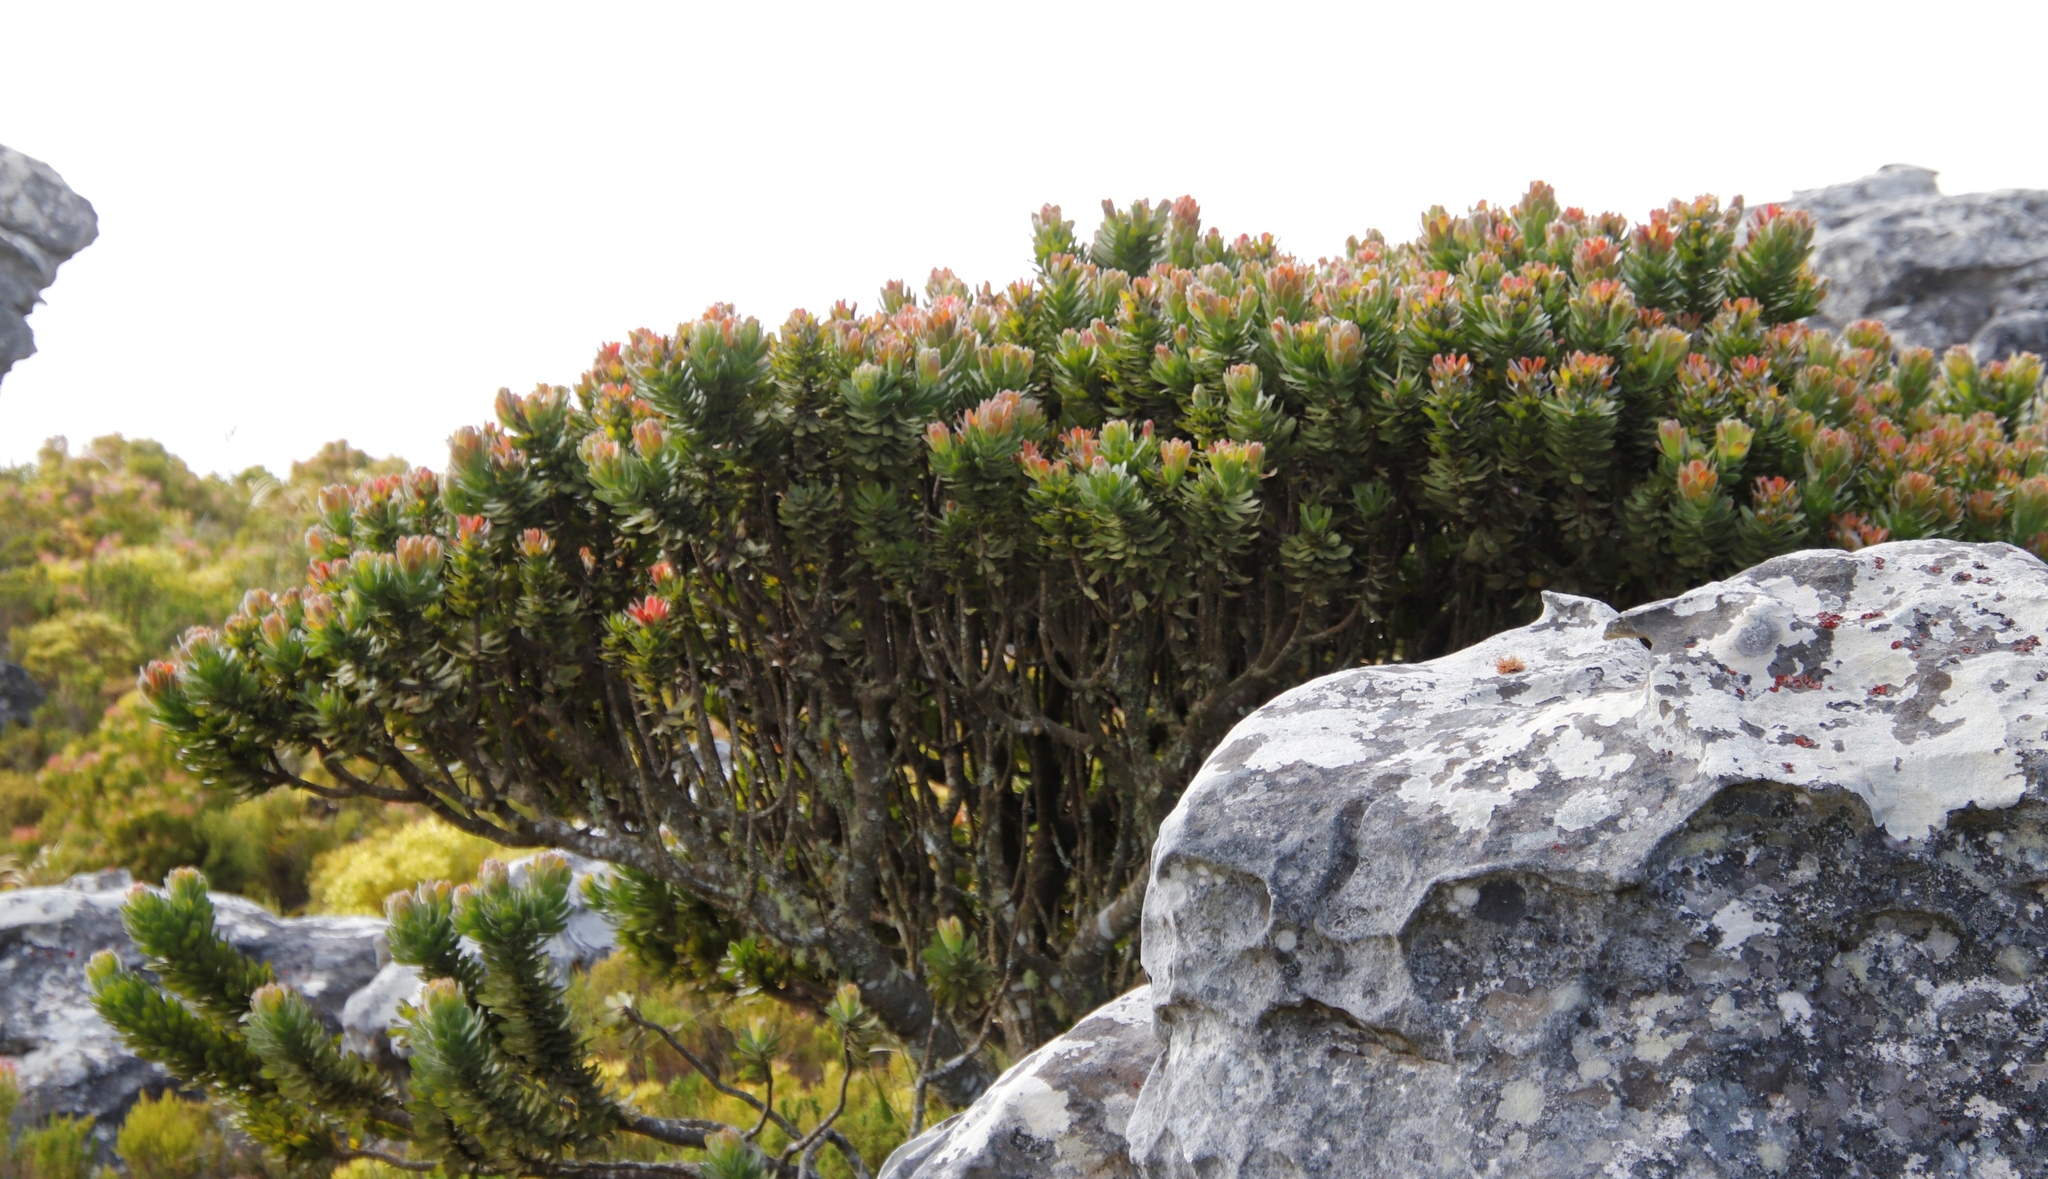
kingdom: Plantae
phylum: Tracheophyta
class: Magnoliopsida
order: Proteales
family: Proteaceae
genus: Mimetes
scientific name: Mimetes fimbriifolius
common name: Fringed bottlebrush
